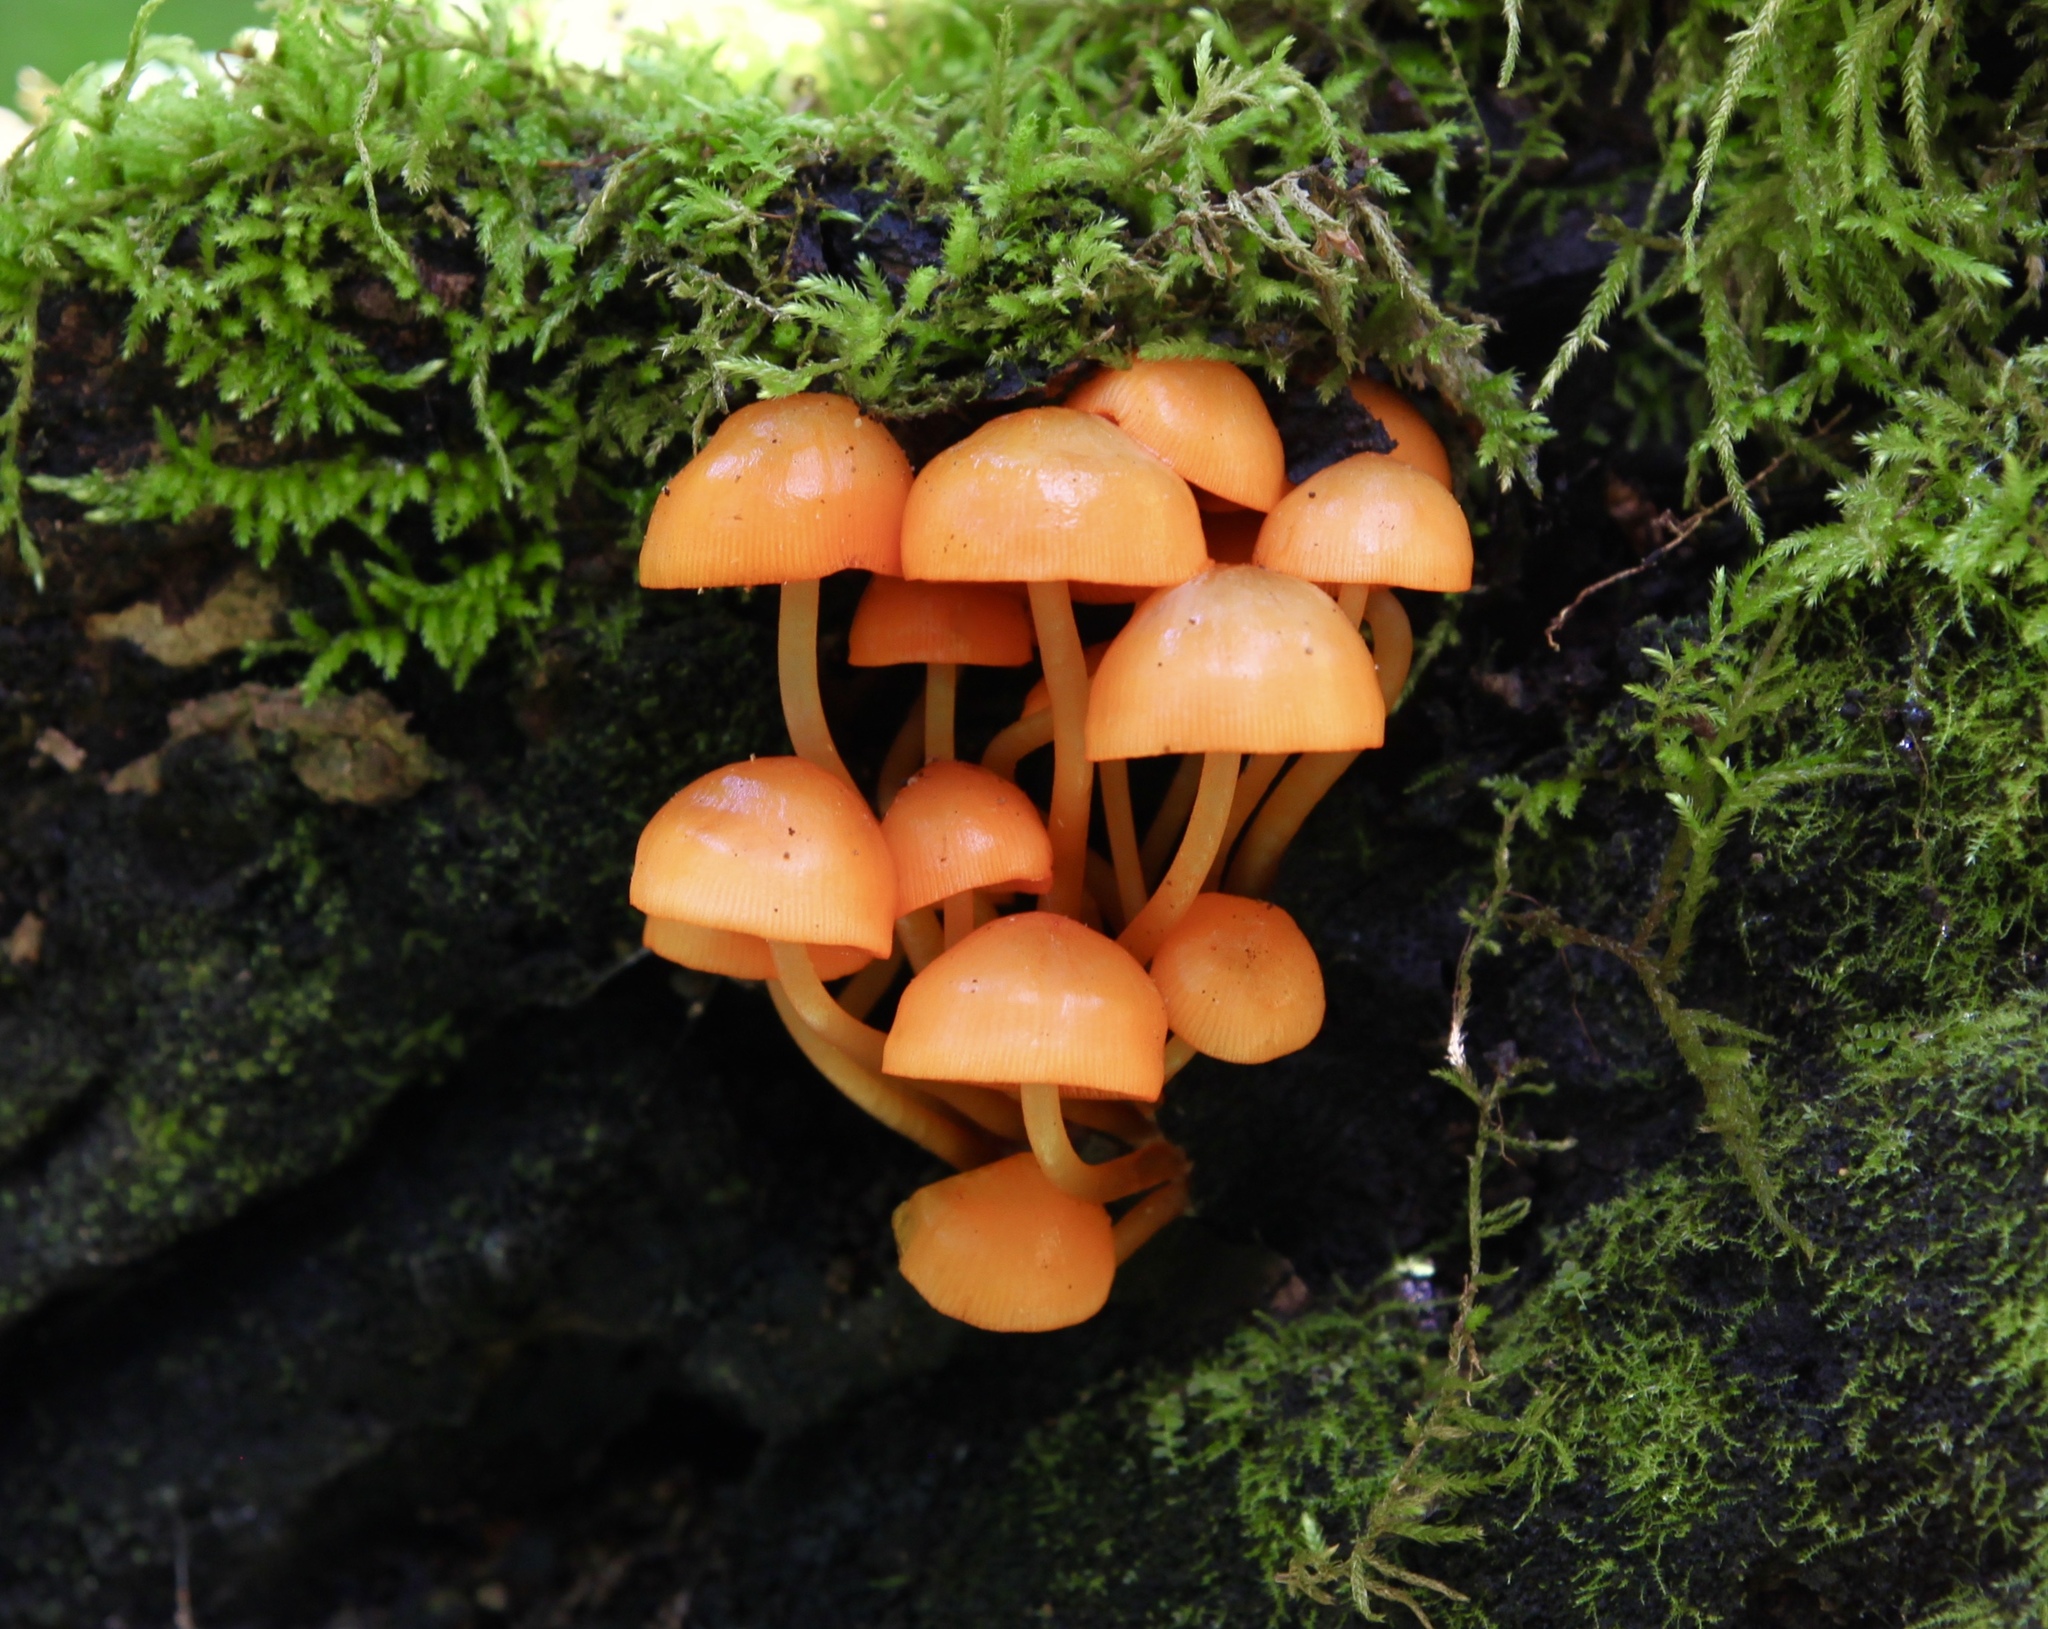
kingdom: Fungi
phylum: Basidiomycota
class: Agaricomycetes
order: Agaricales
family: Mycenaceae
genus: Mycena
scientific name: Mycena leaiana
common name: Orange mycena
